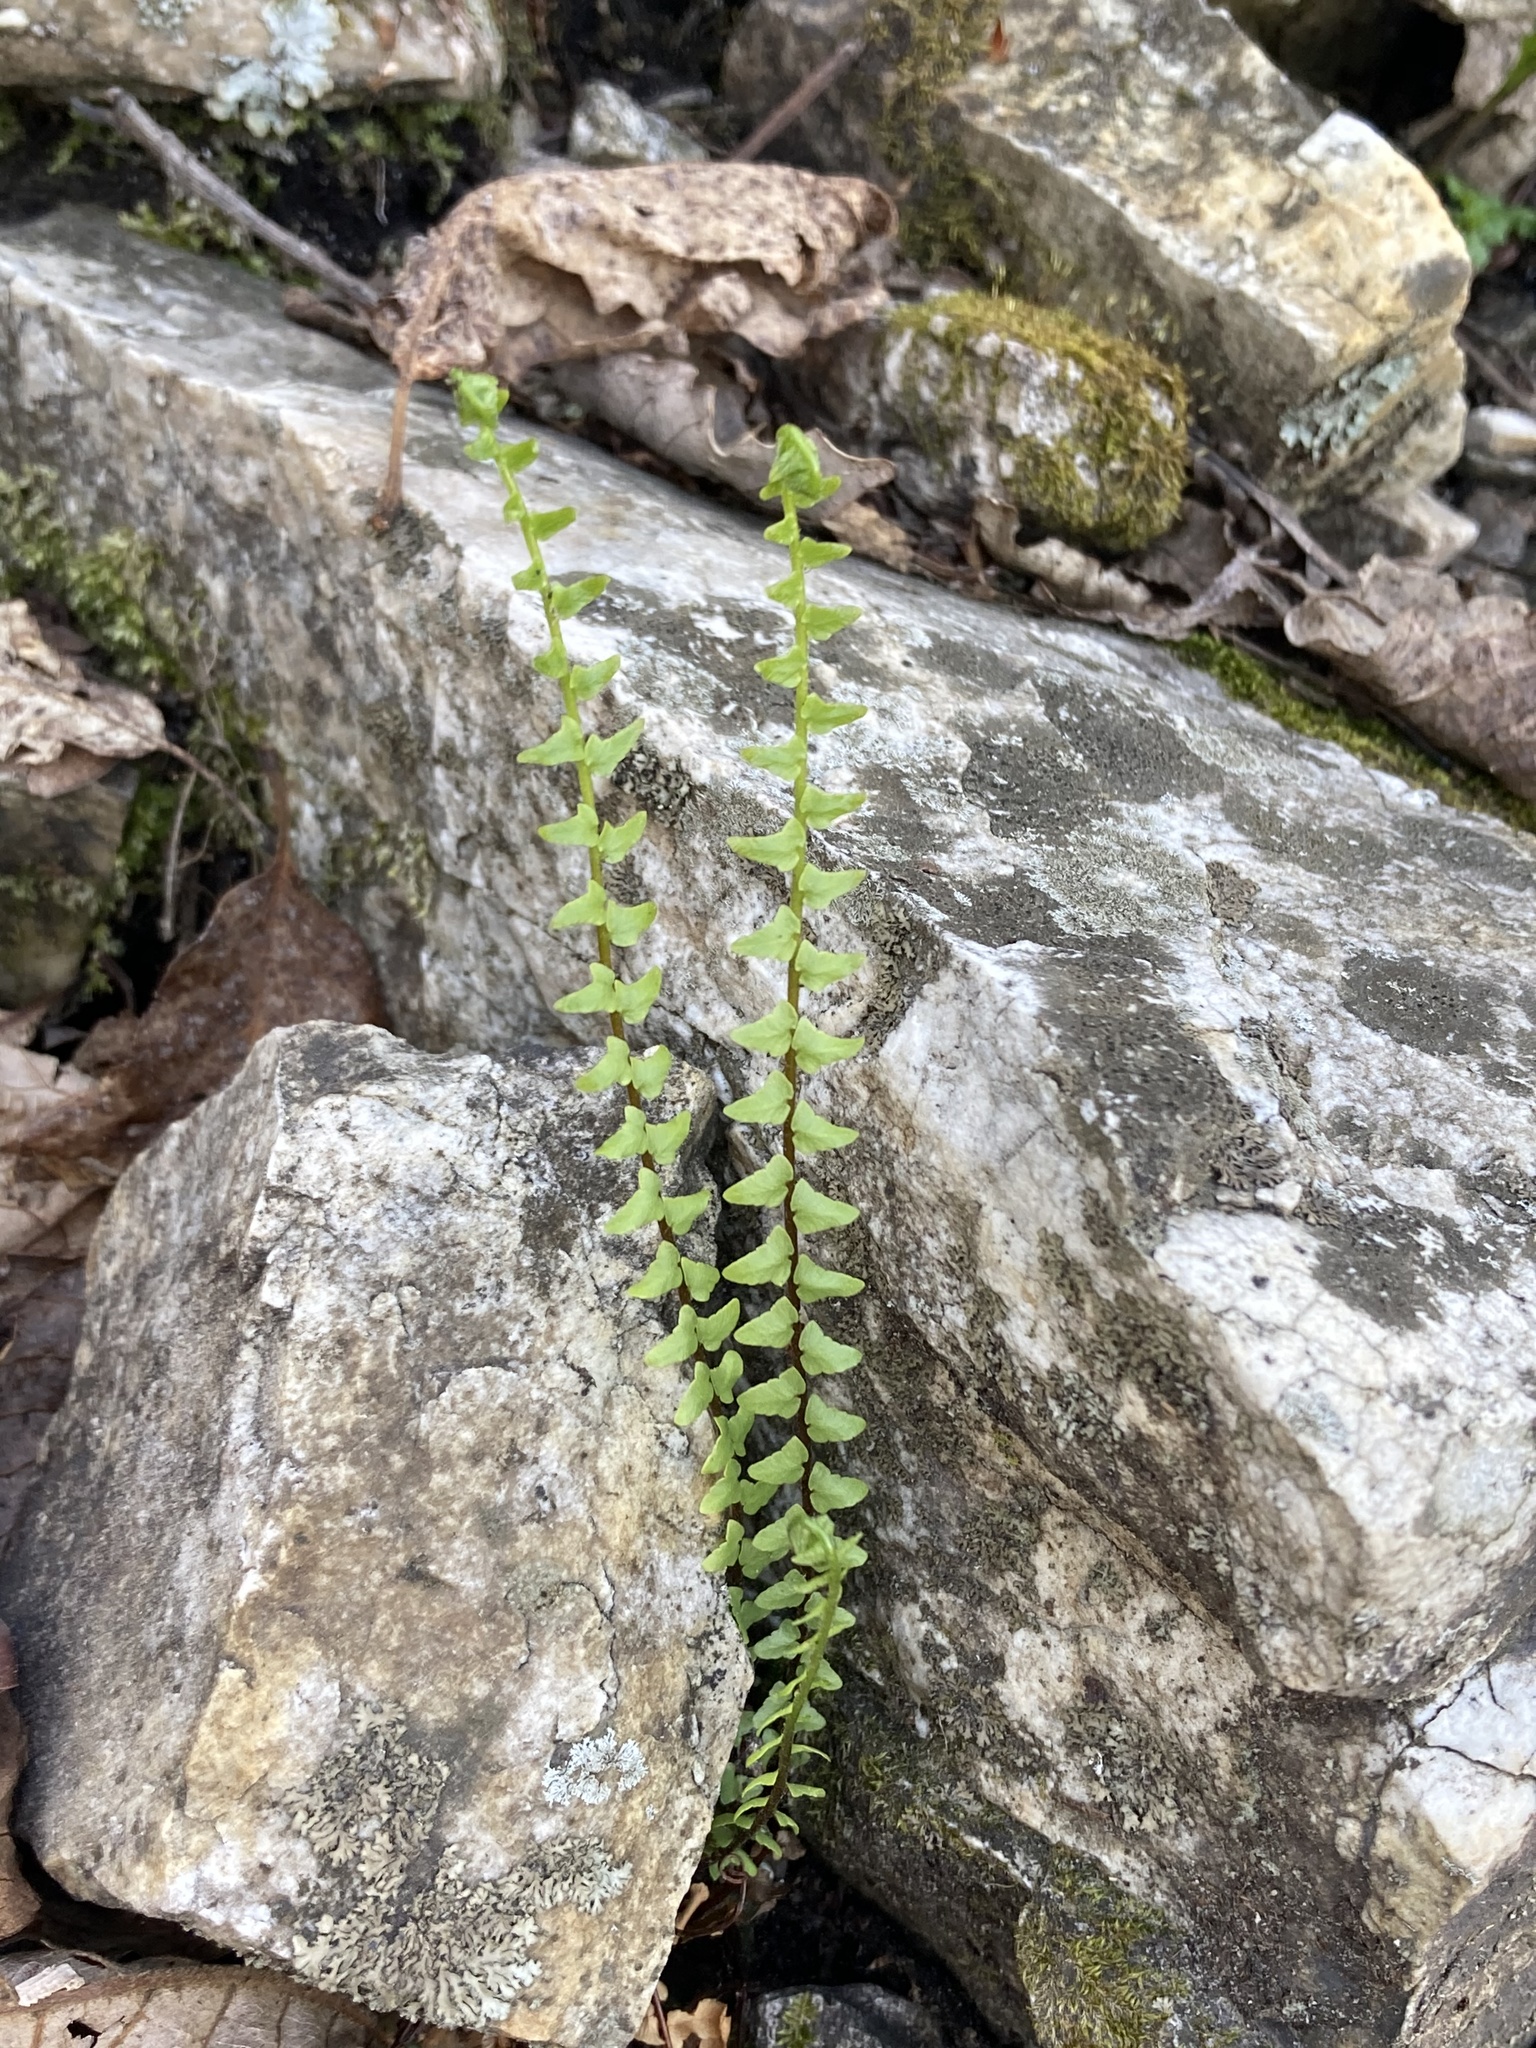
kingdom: Plantae
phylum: Tracheophyta
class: Polypodiopsida
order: Polypodiales
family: Aspleniaceae
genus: Asplenium
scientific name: Asplenium platyneuron
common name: Ebony spleenwort
